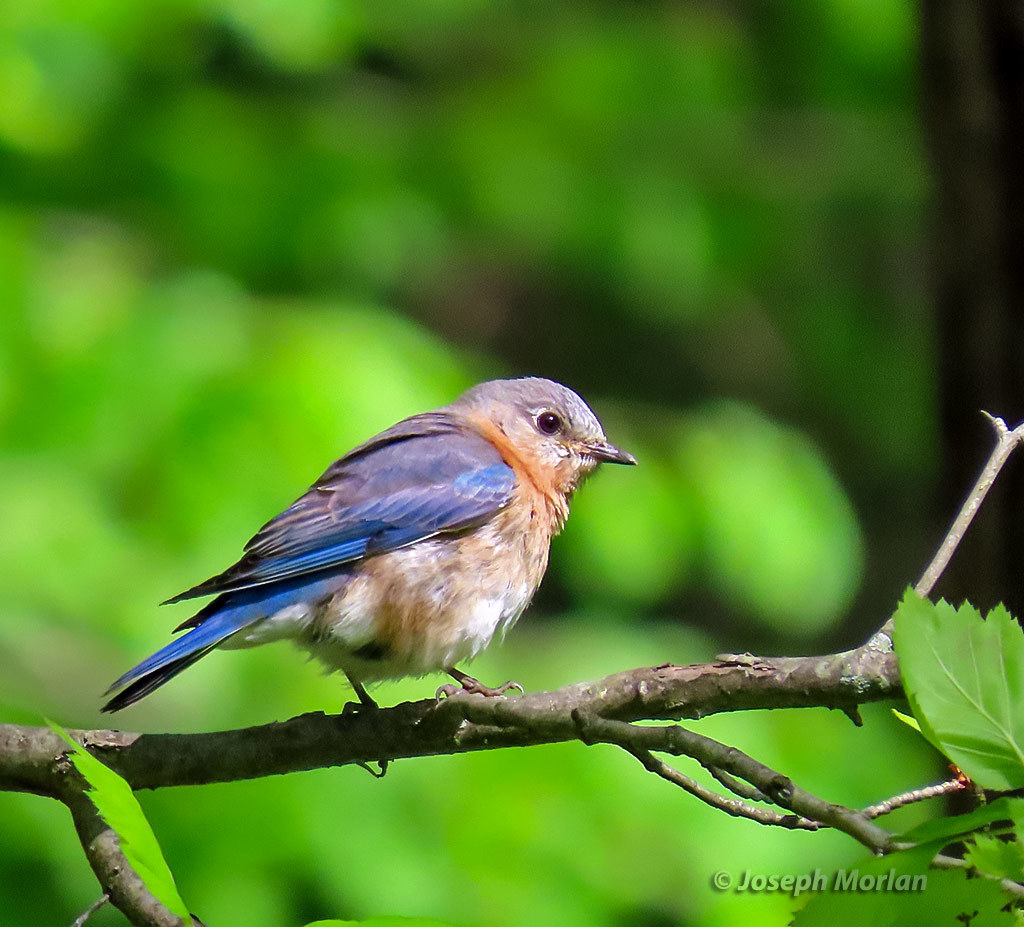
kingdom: Animalia
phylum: Chordata
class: Aves
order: Passeriformes
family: Turdidae
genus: Sialia
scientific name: Sialia sialis
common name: Eastern bluebird
